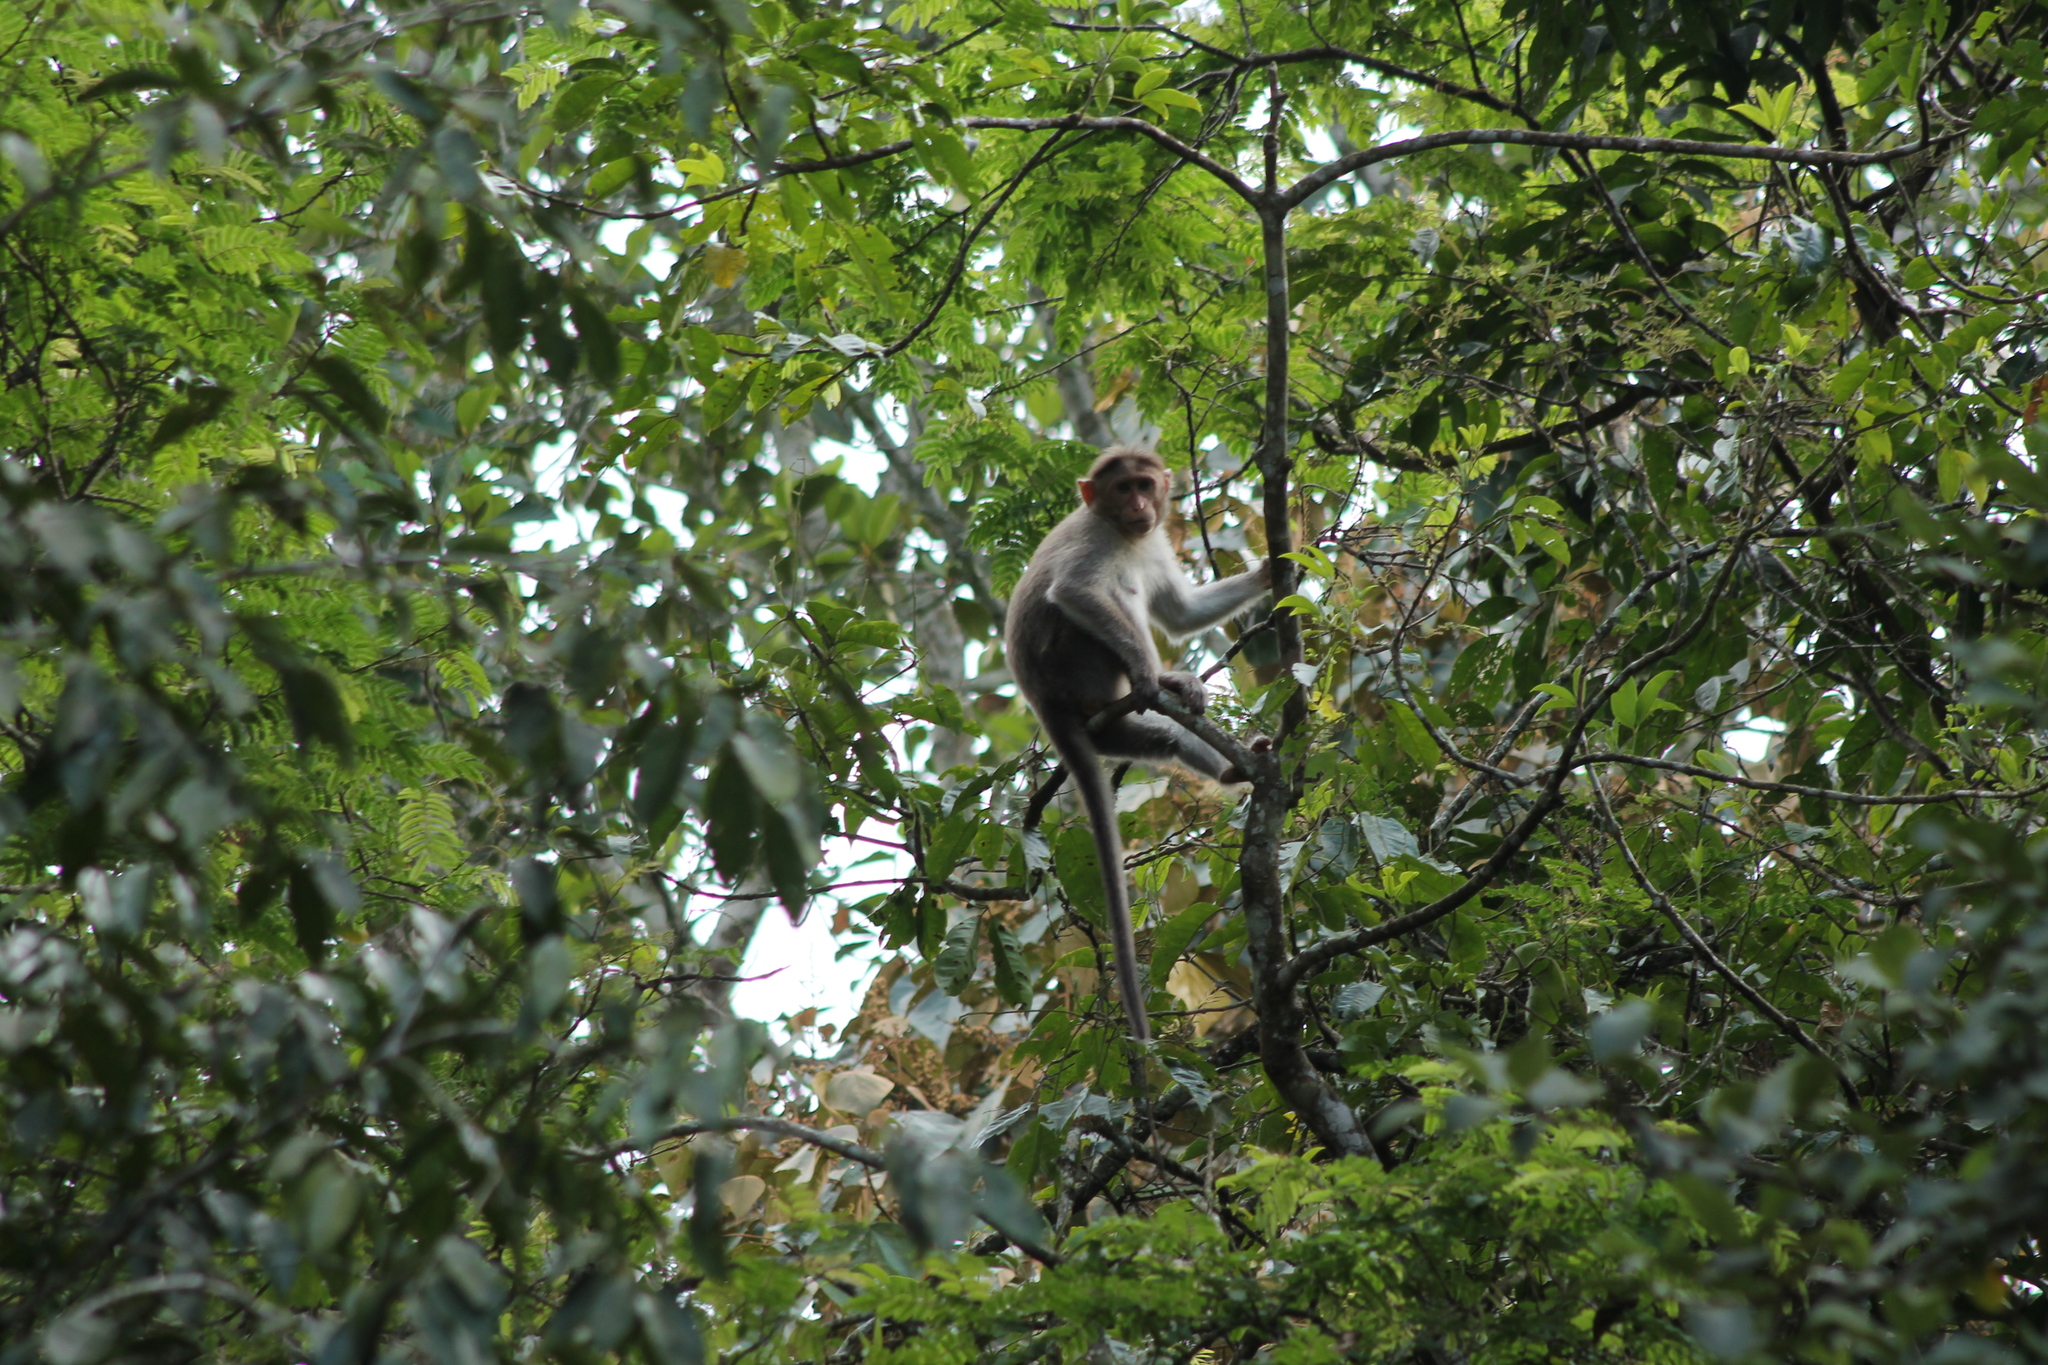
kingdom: Animalia
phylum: Chordata
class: Mammalia
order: Primates
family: Cercopithecidae
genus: Macaca
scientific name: Macaca radiata
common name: Bonnet macaque
